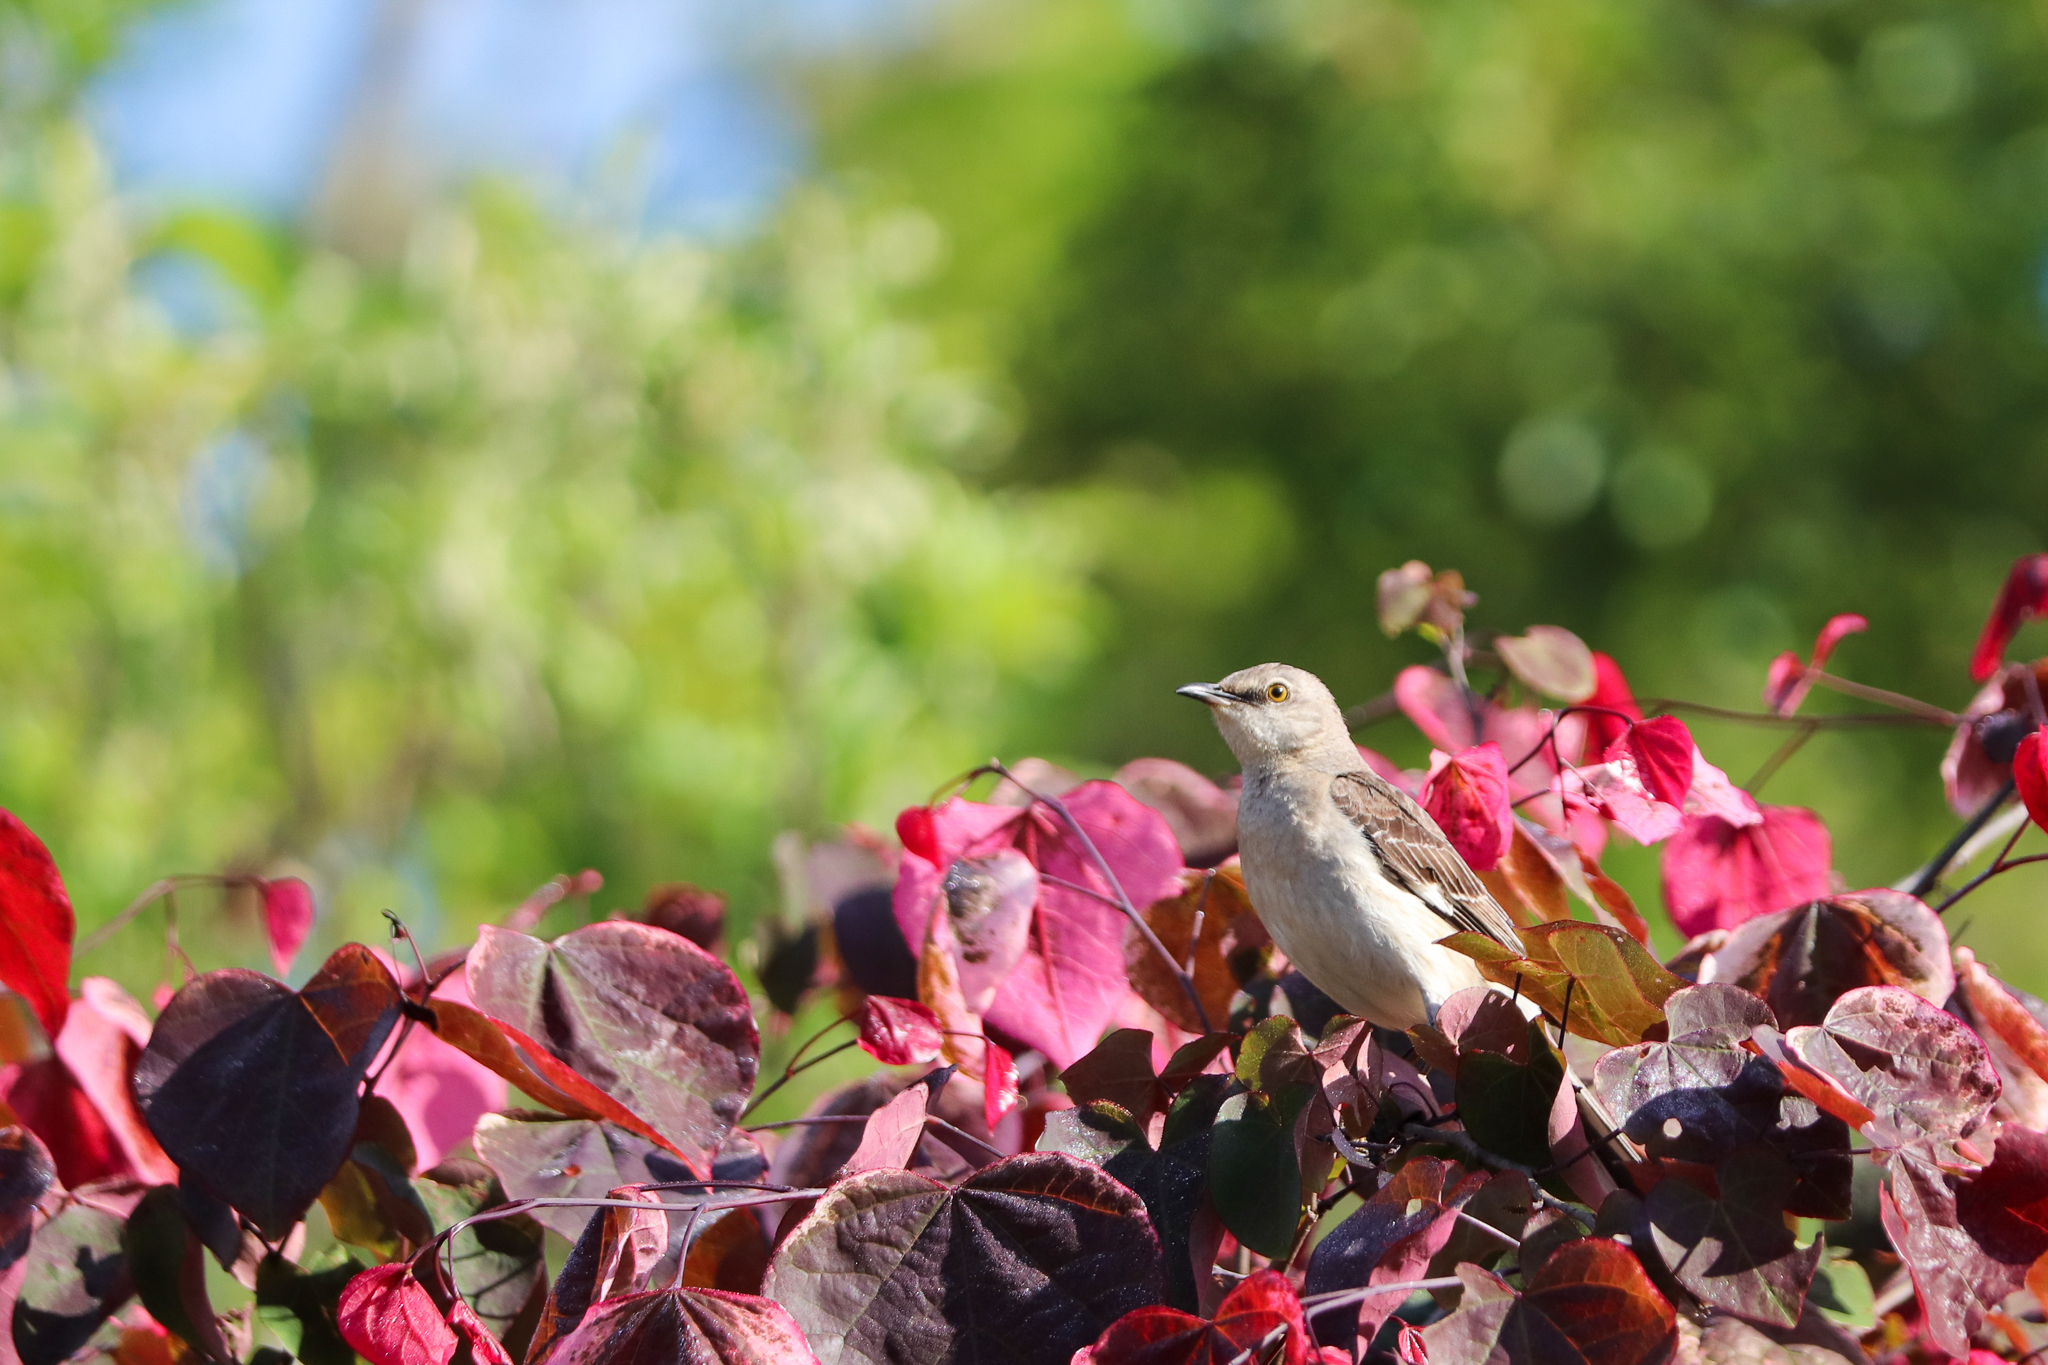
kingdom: Animalia
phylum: Chordata
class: Aves
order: Passeriformes
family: Mimidae
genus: Mimus
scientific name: Mimus polyglottos
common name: Northern mockingbird
